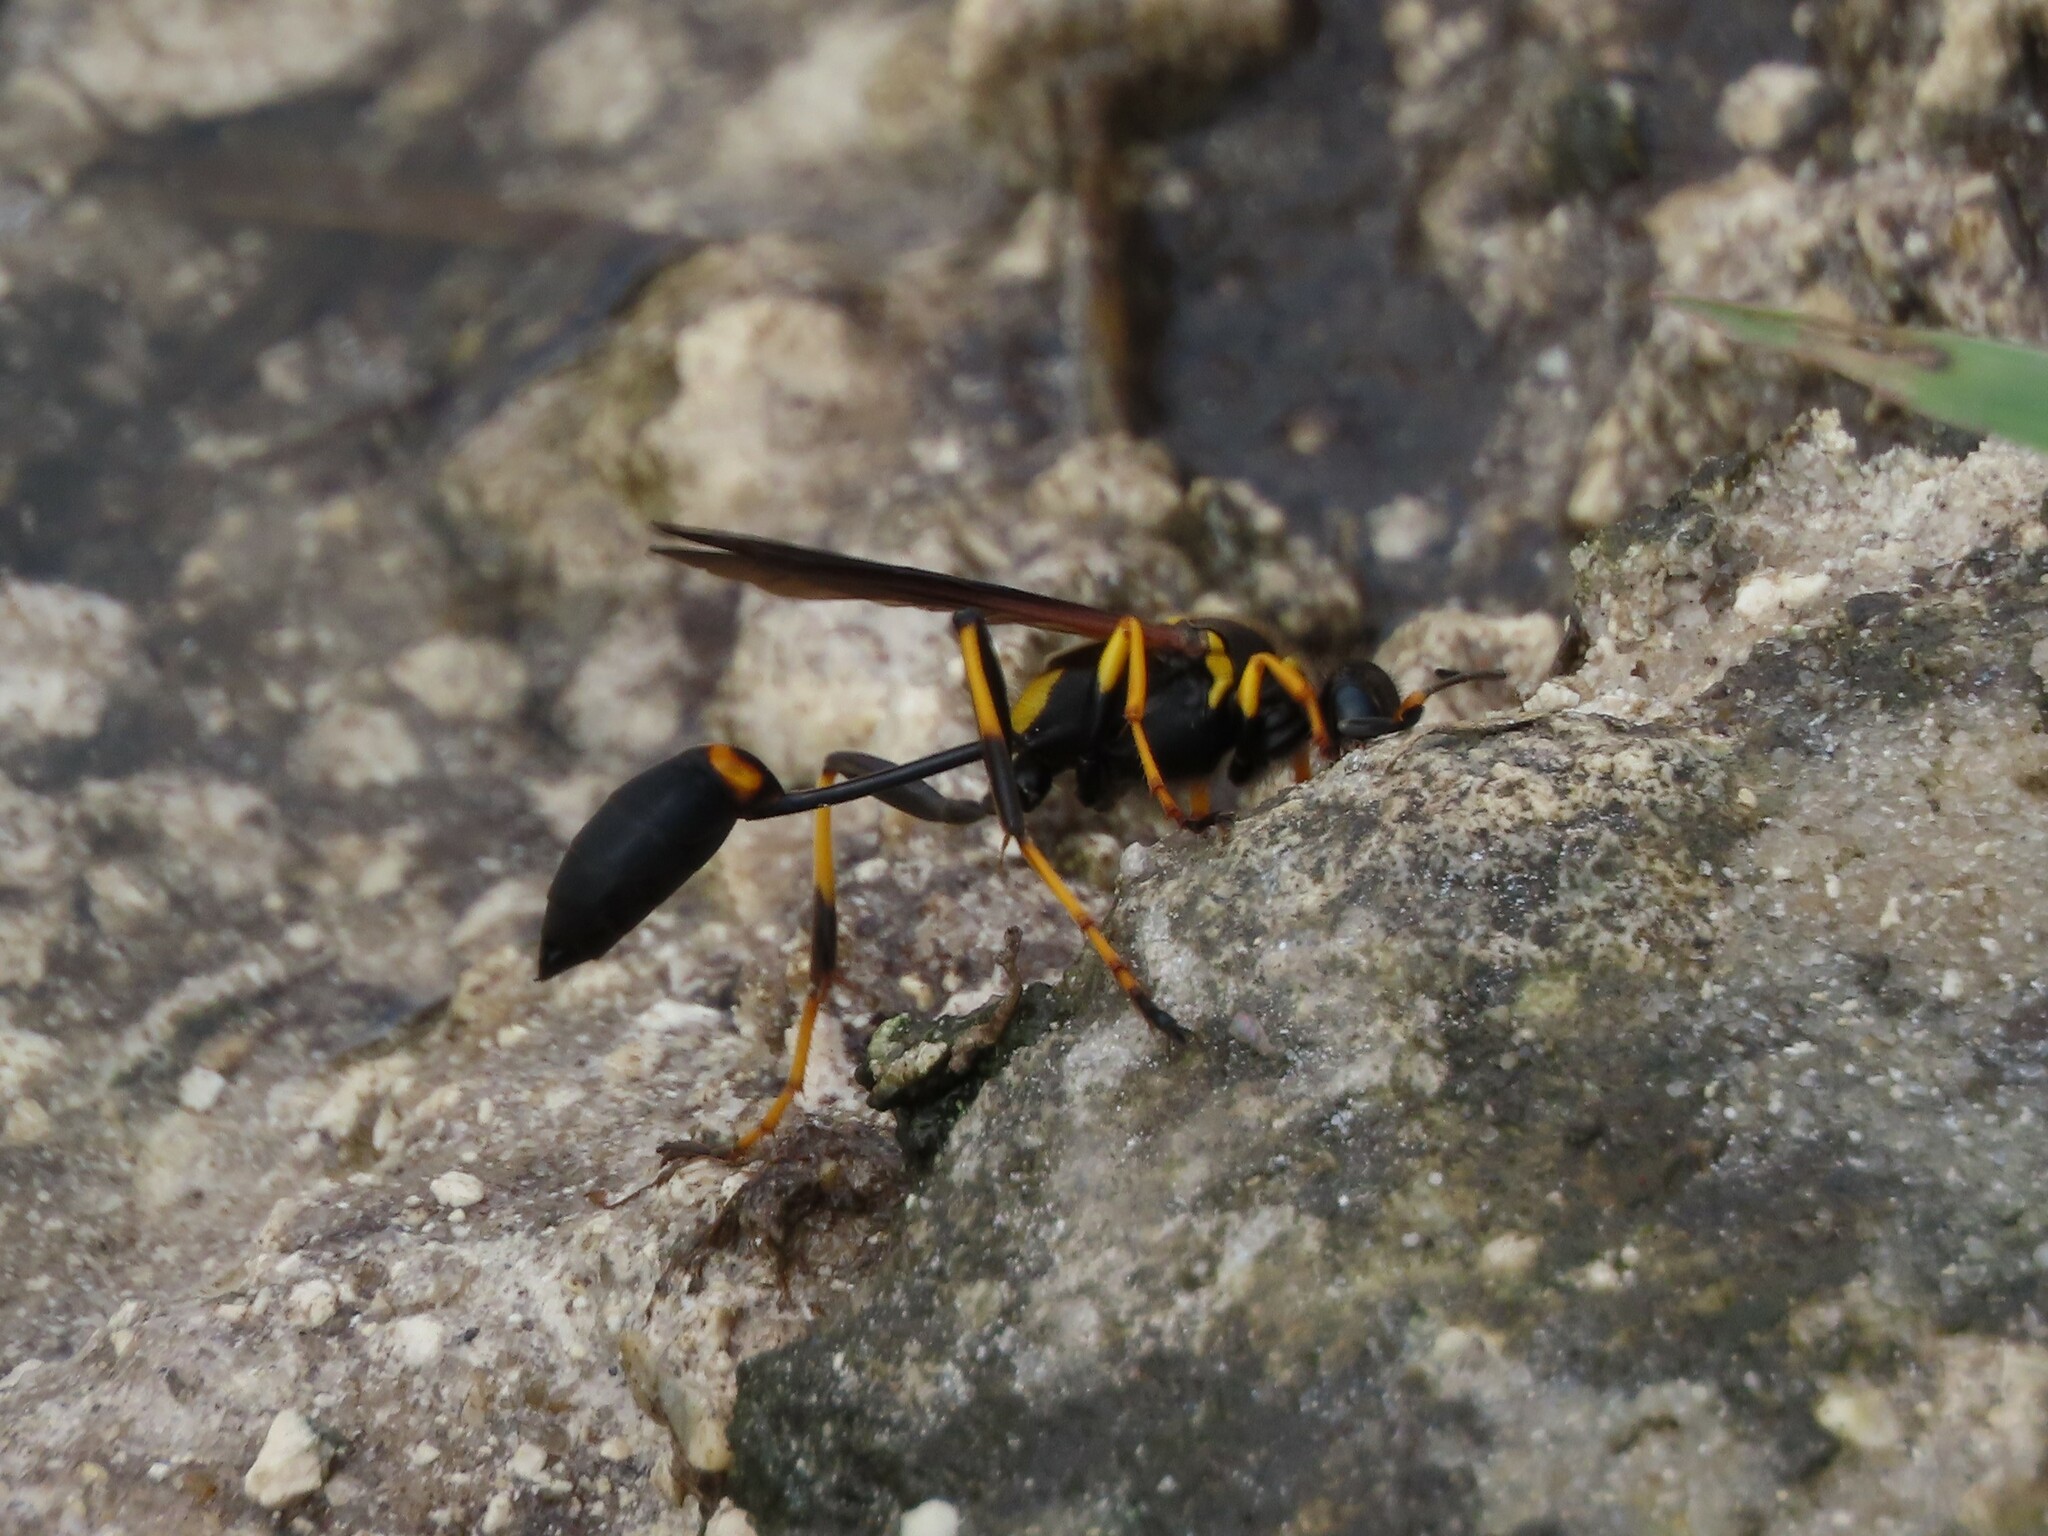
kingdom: Animalia
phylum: Arthropoda
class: Insecta
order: Hymenoptera
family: Sphecidae
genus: Sceliphron
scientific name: Sceliphron caementarium
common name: Mud dauber
